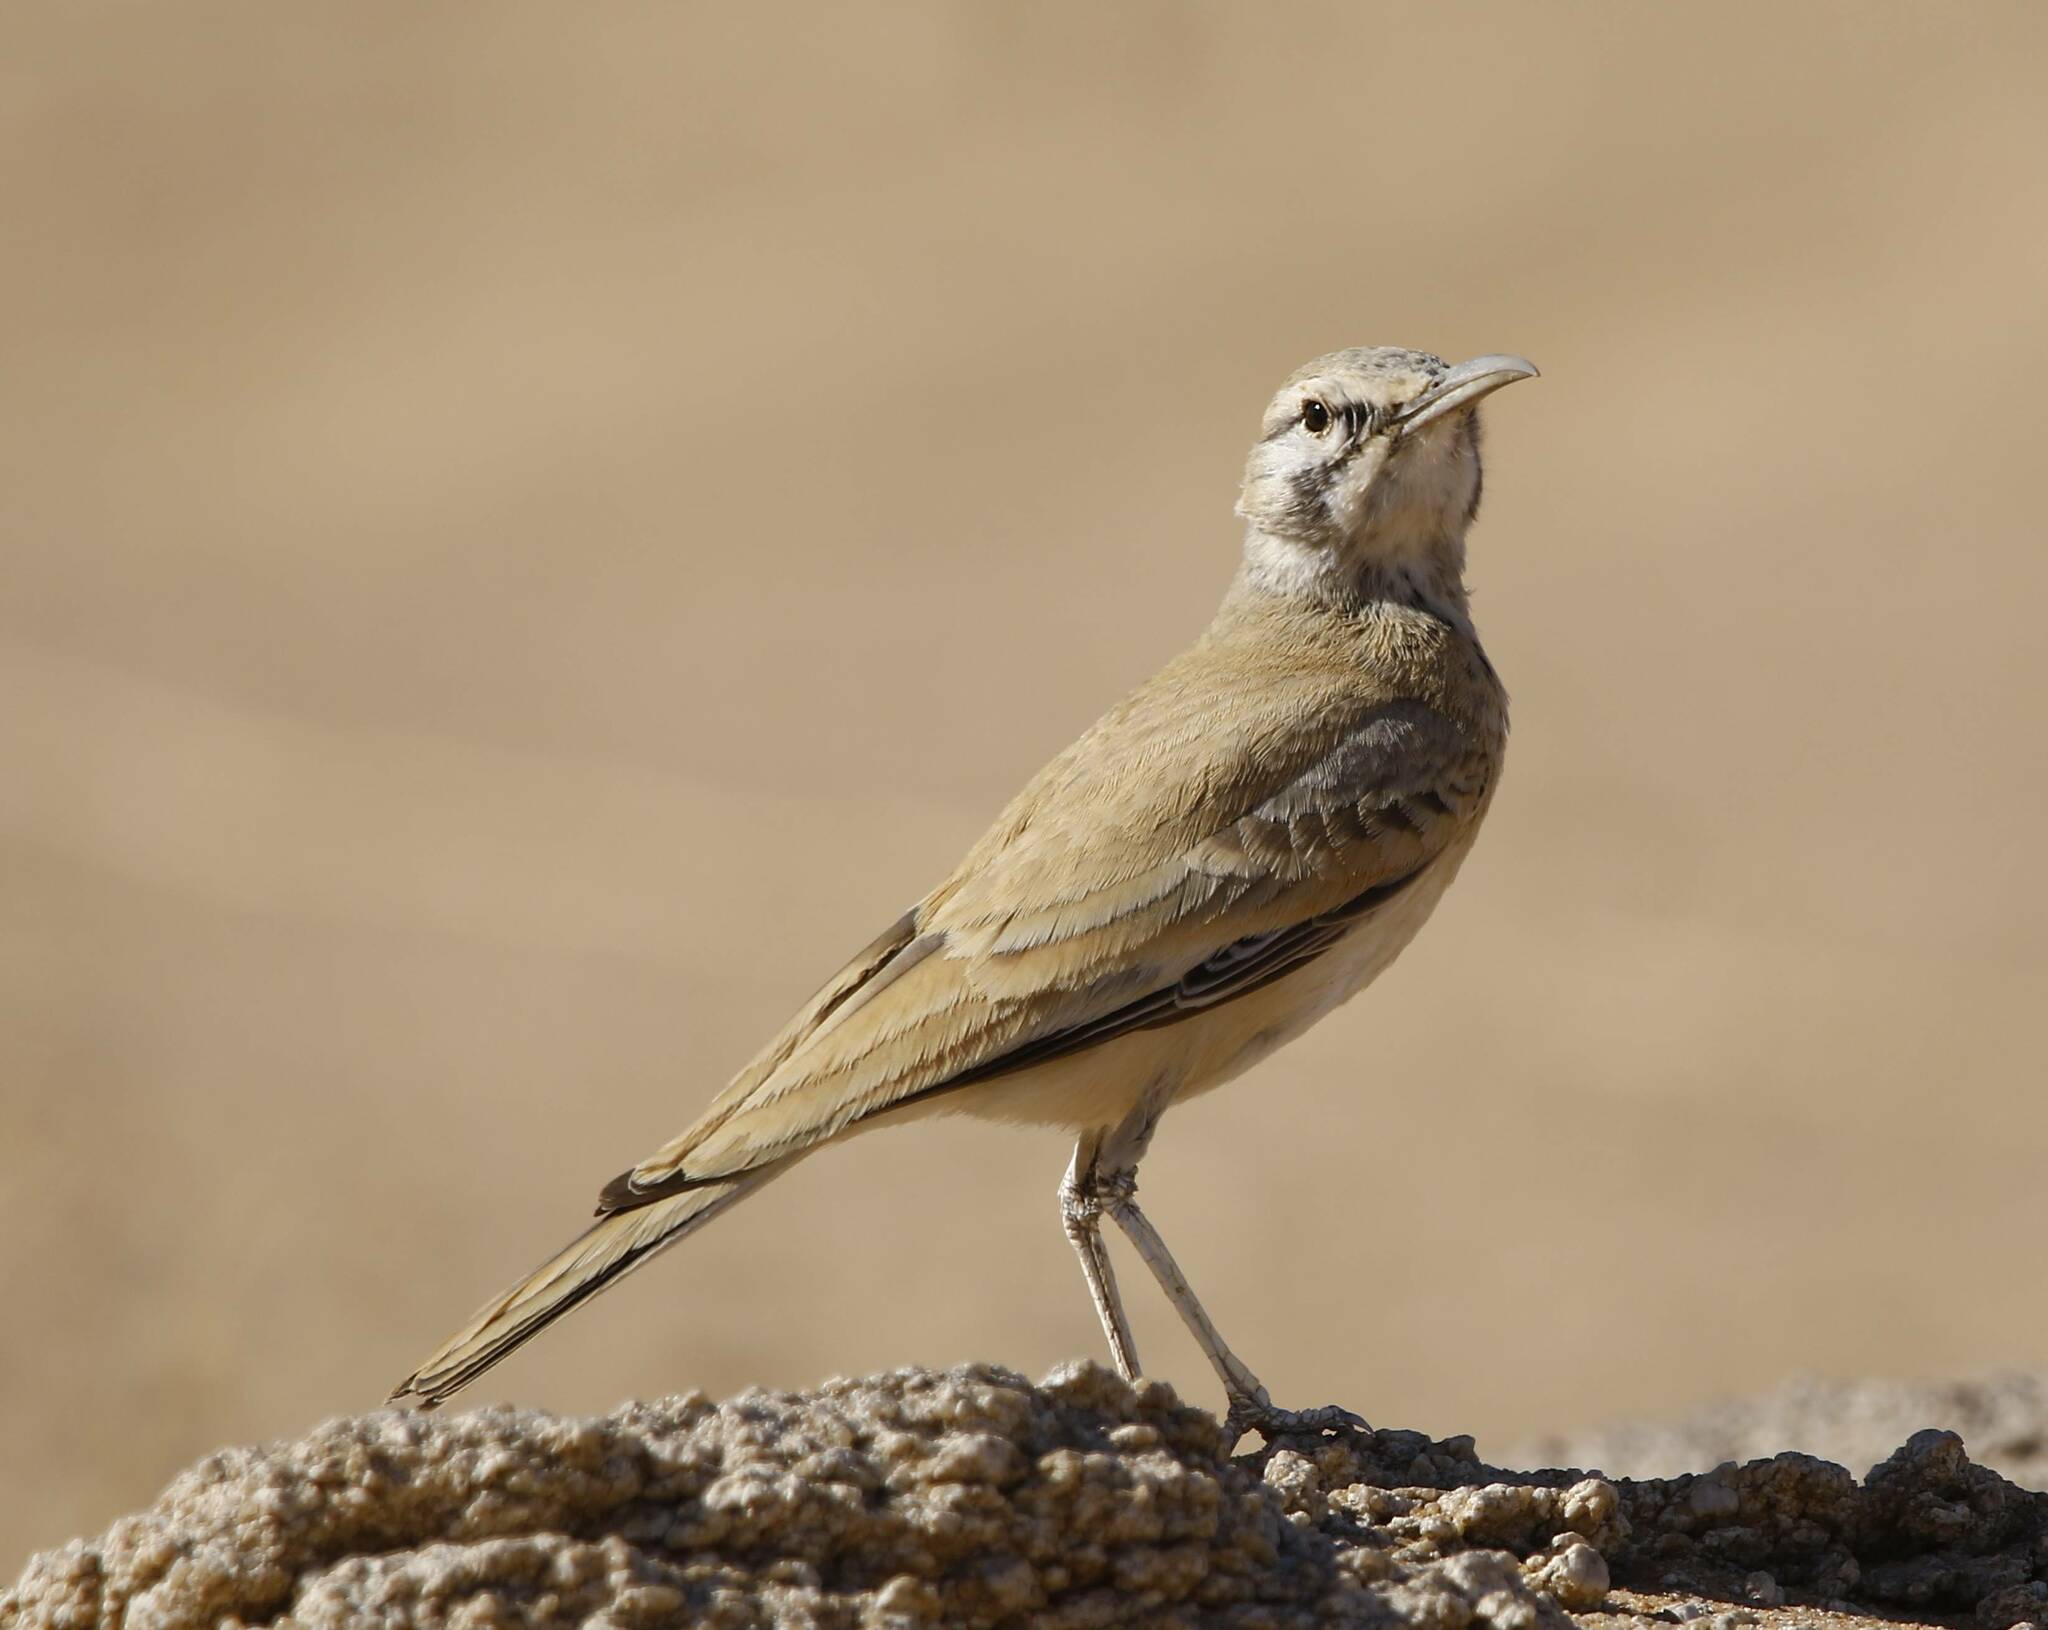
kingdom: Animalia
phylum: Chordata
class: Aves
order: Passeriformes
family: Alaudidae
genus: Alaemon
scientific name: Alaemon alaudipes
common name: Greater hoopoe-lark
